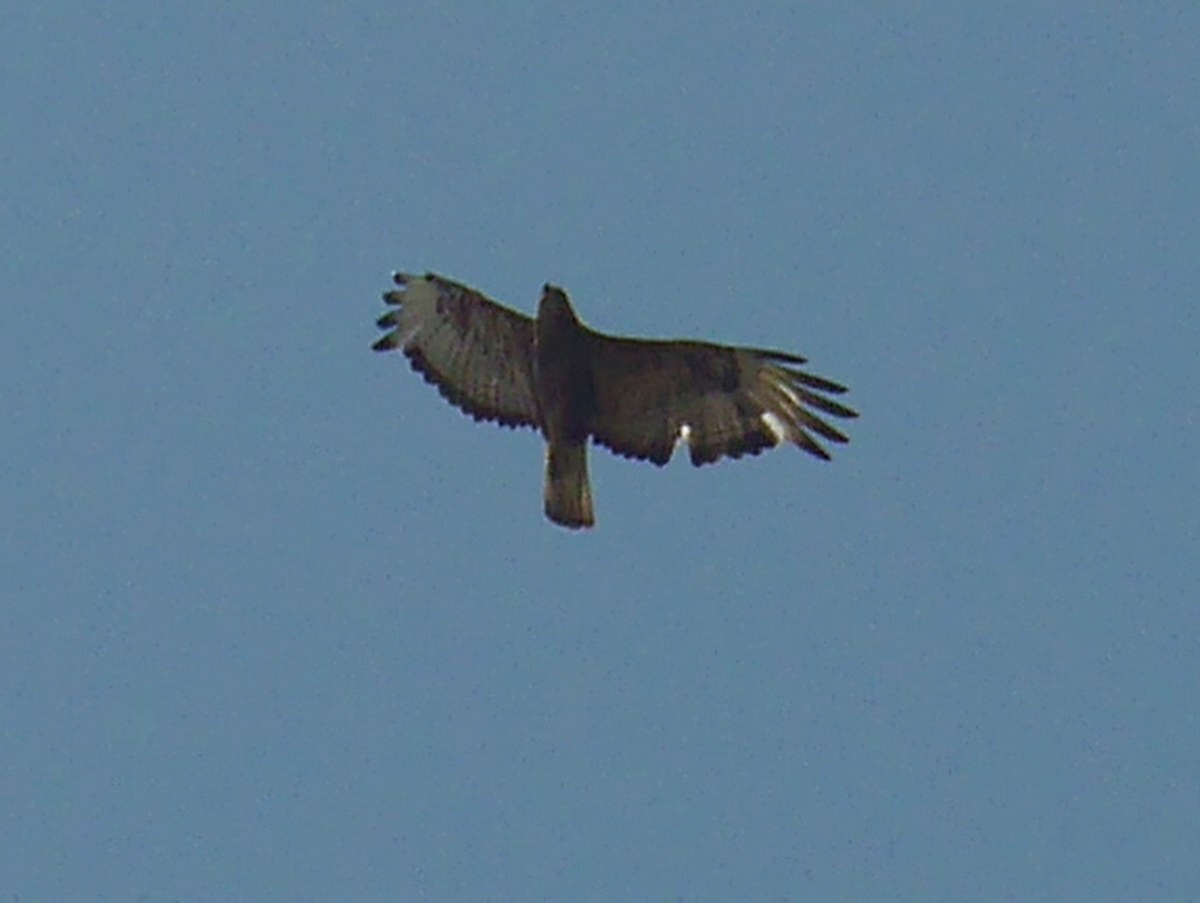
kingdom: Animalia
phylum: Chordata
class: Aves
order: Accipitriformes
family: Accipitridae
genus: Buteo
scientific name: Buteo buteo
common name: Common buzzard
